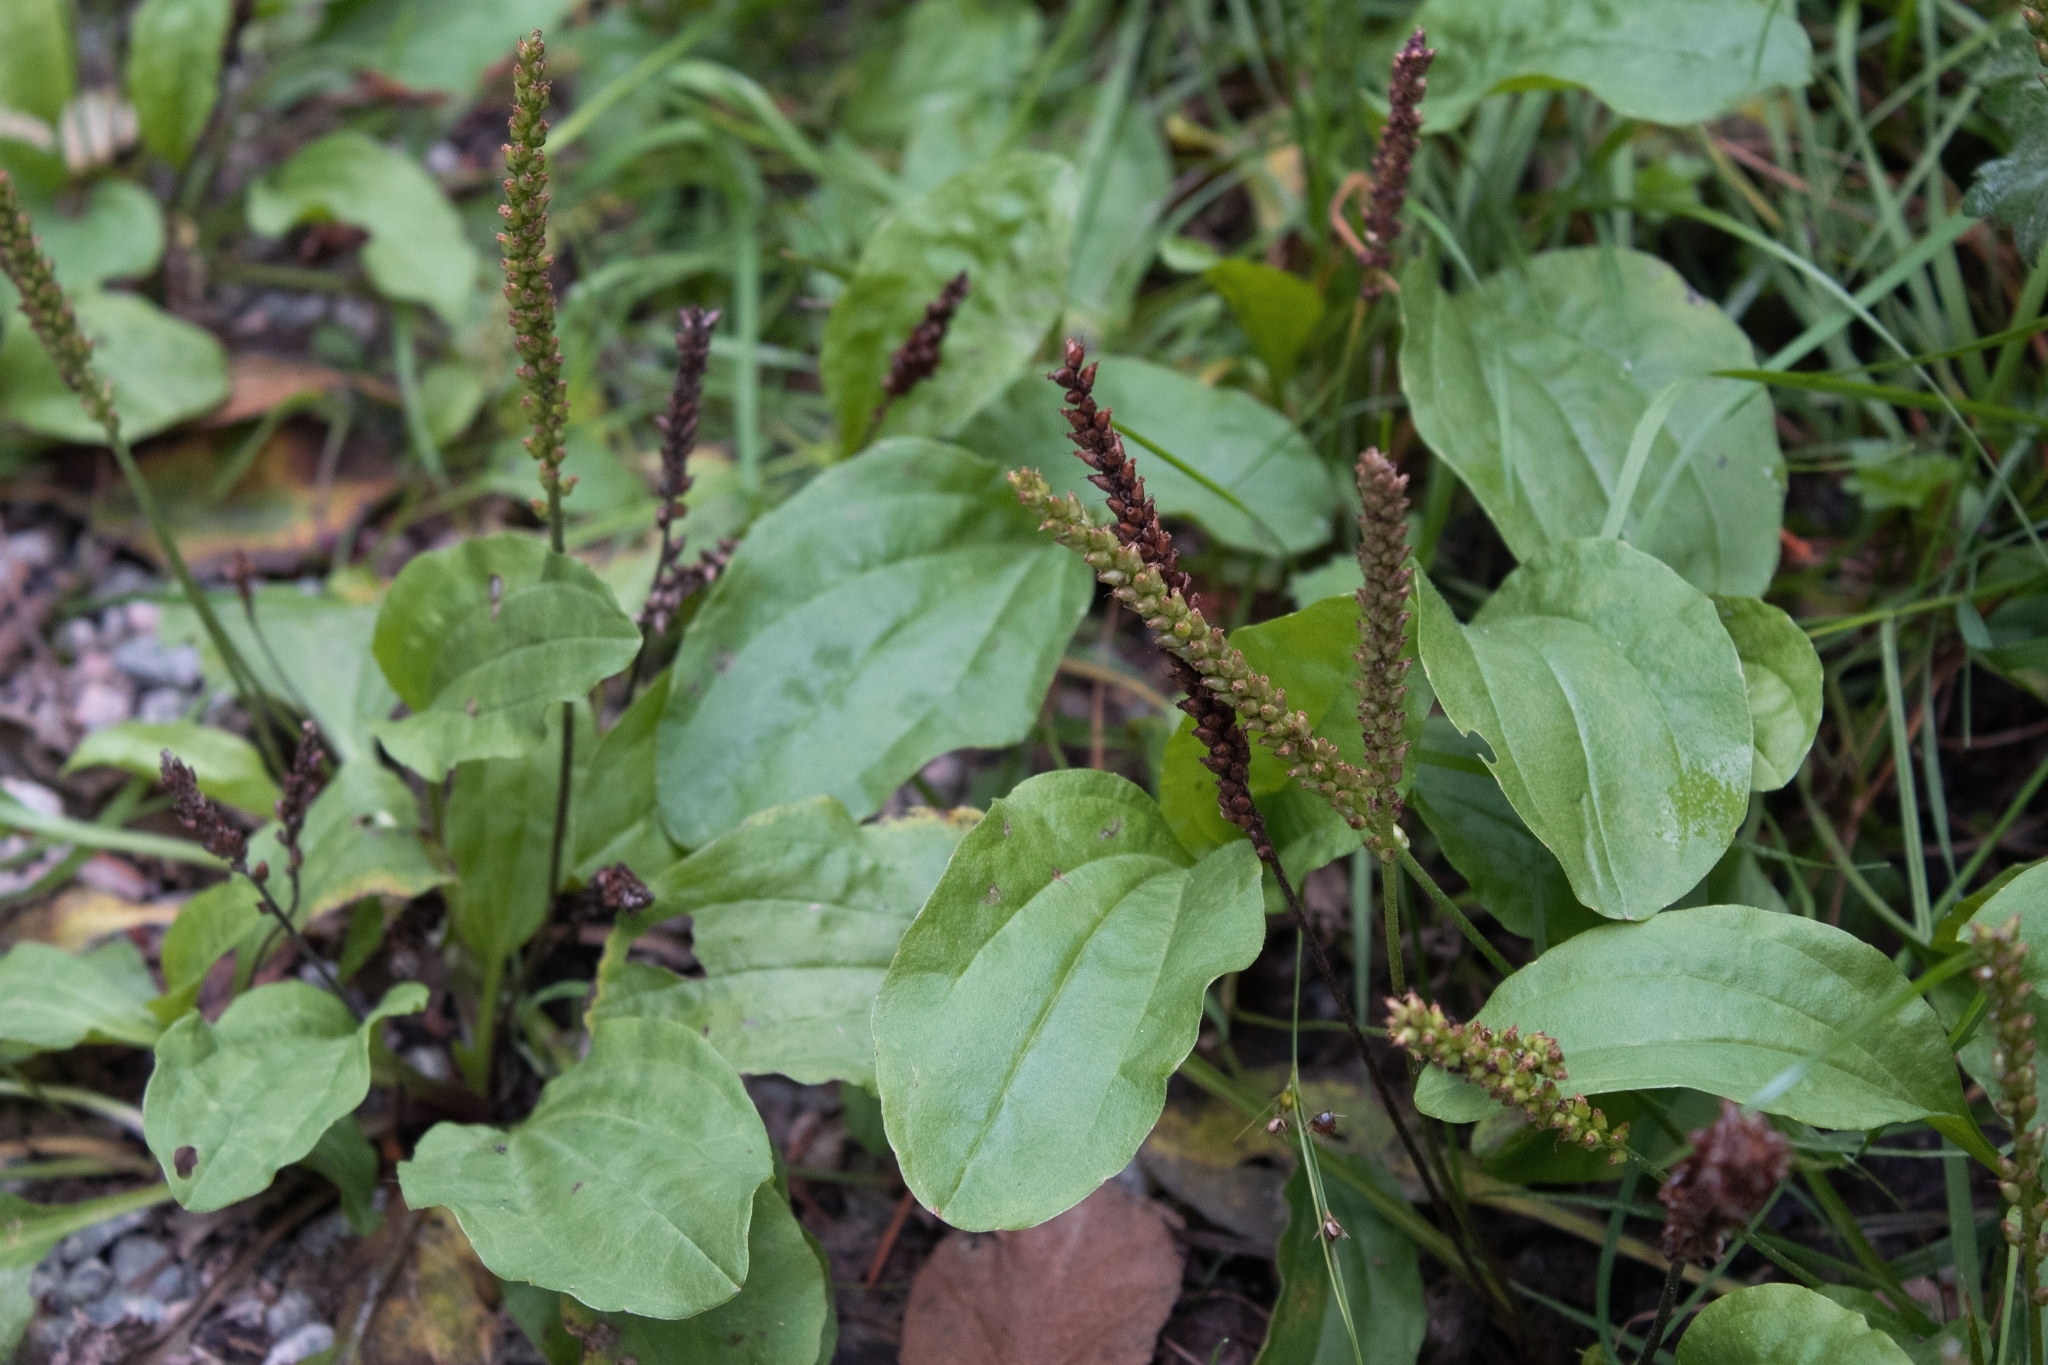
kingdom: Plantae
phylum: Tracheophyta
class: Magnoliopsida
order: Lamiales
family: Plantaginaceae
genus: Plantago
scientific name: Plantago major
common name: Common plantain
